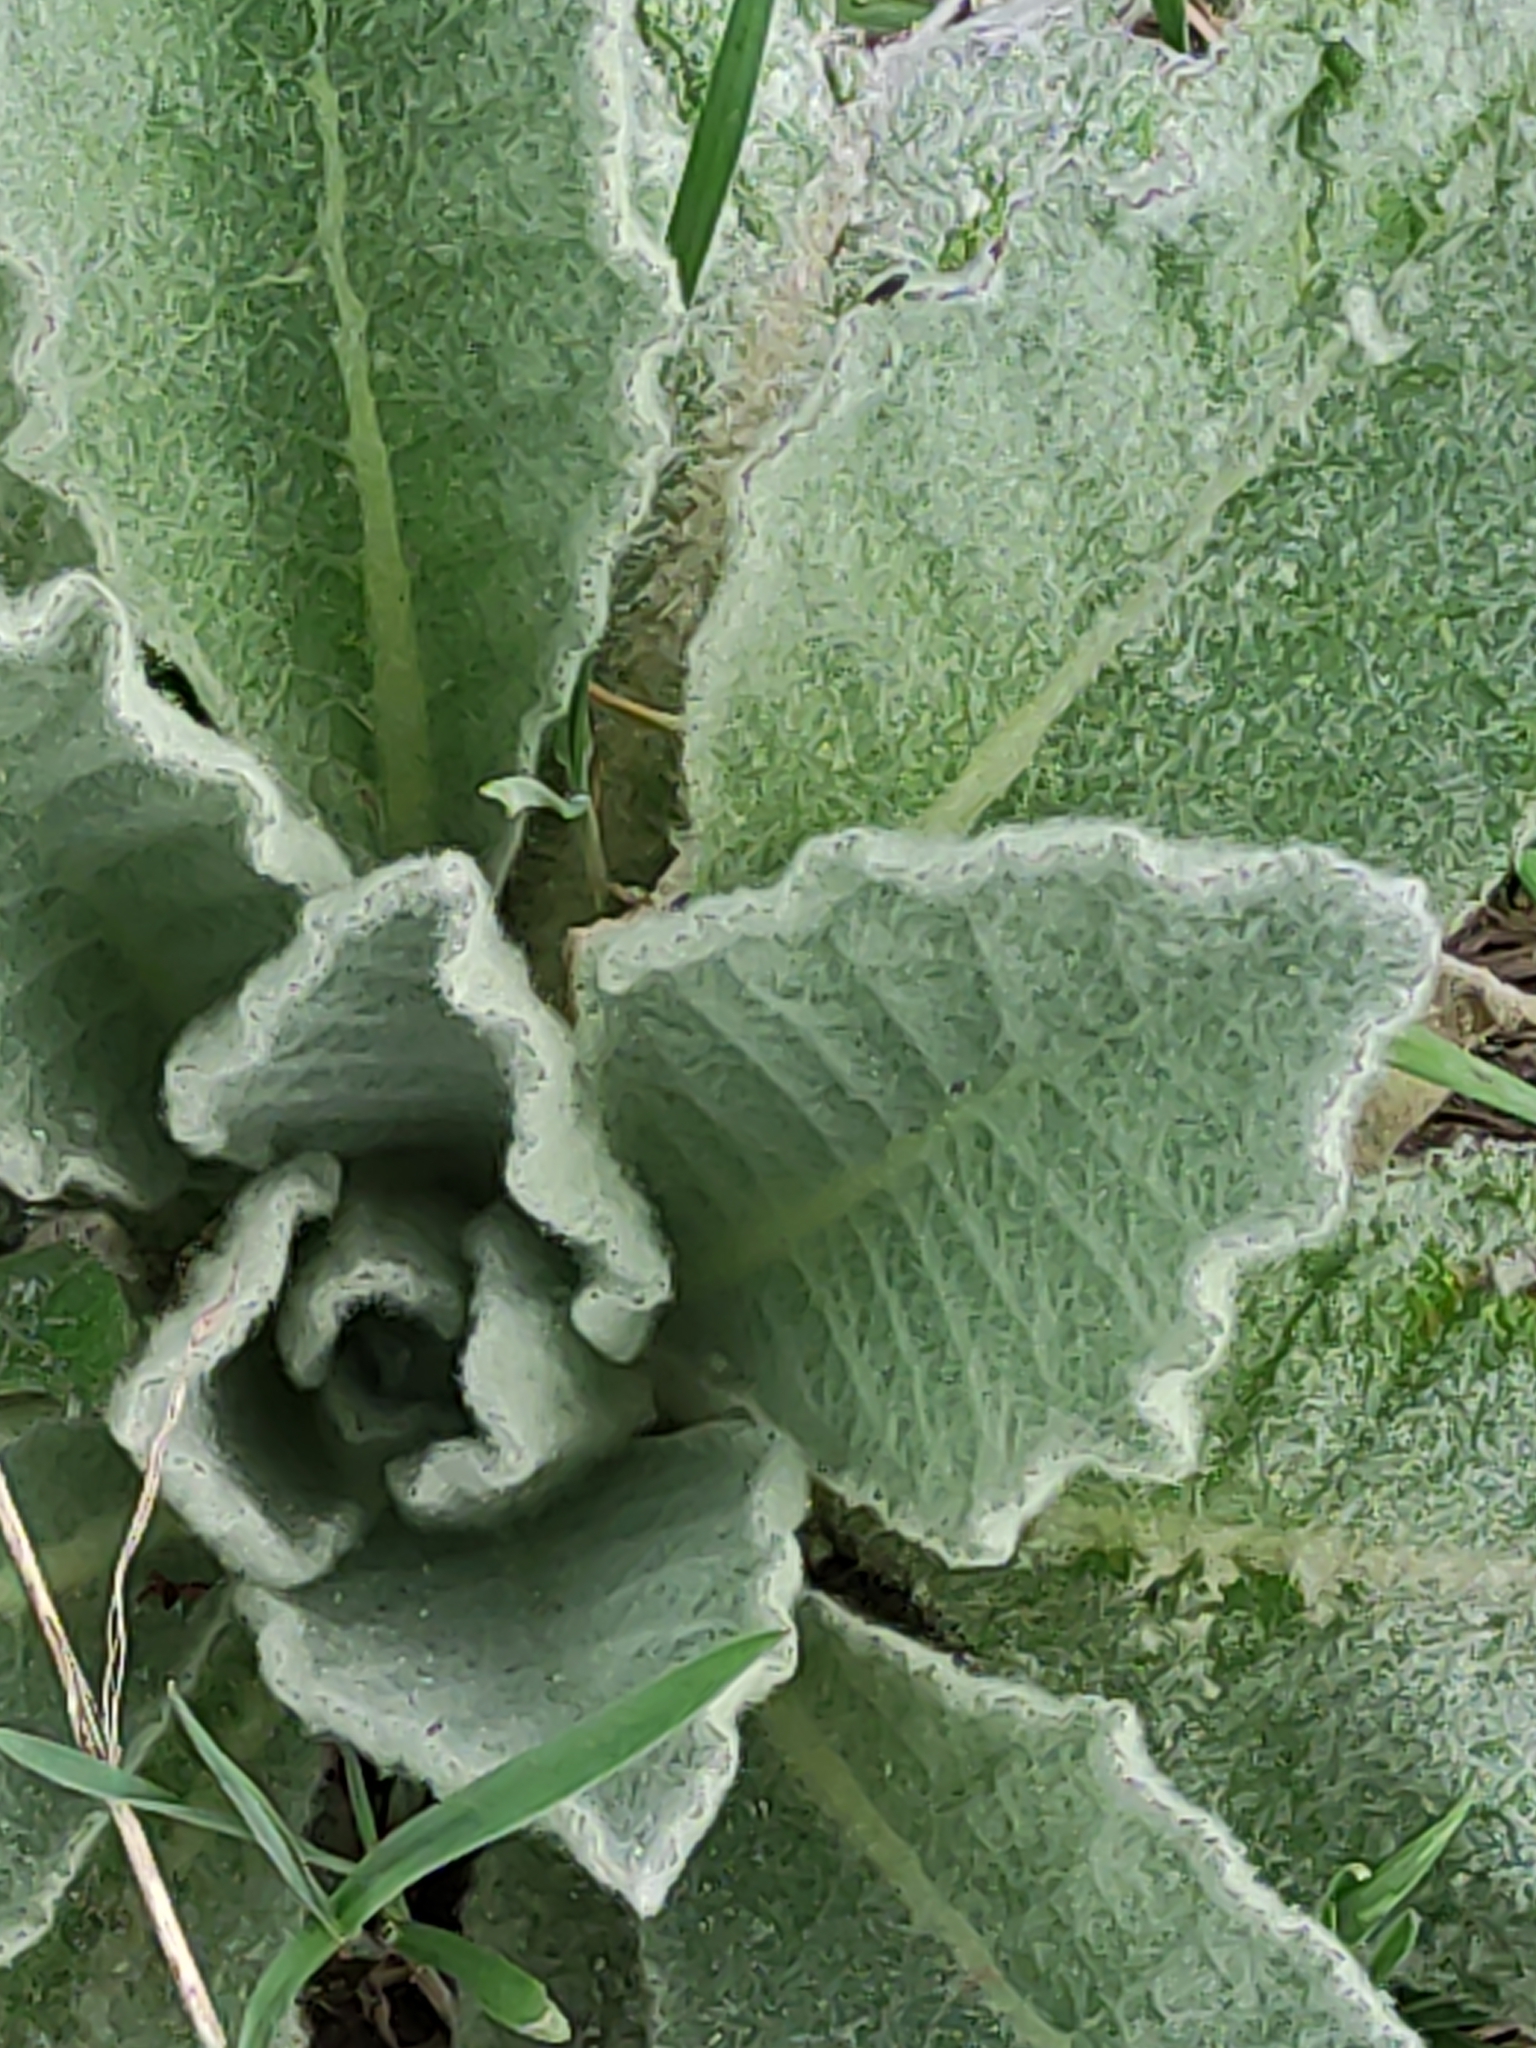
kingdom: Plantae
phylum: Tracheophyta
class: Magnoliopsida
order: Lamiales
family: Scrophulariaceae
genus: Verbascum
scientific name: Verbascum thapsus
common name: Common mullein
